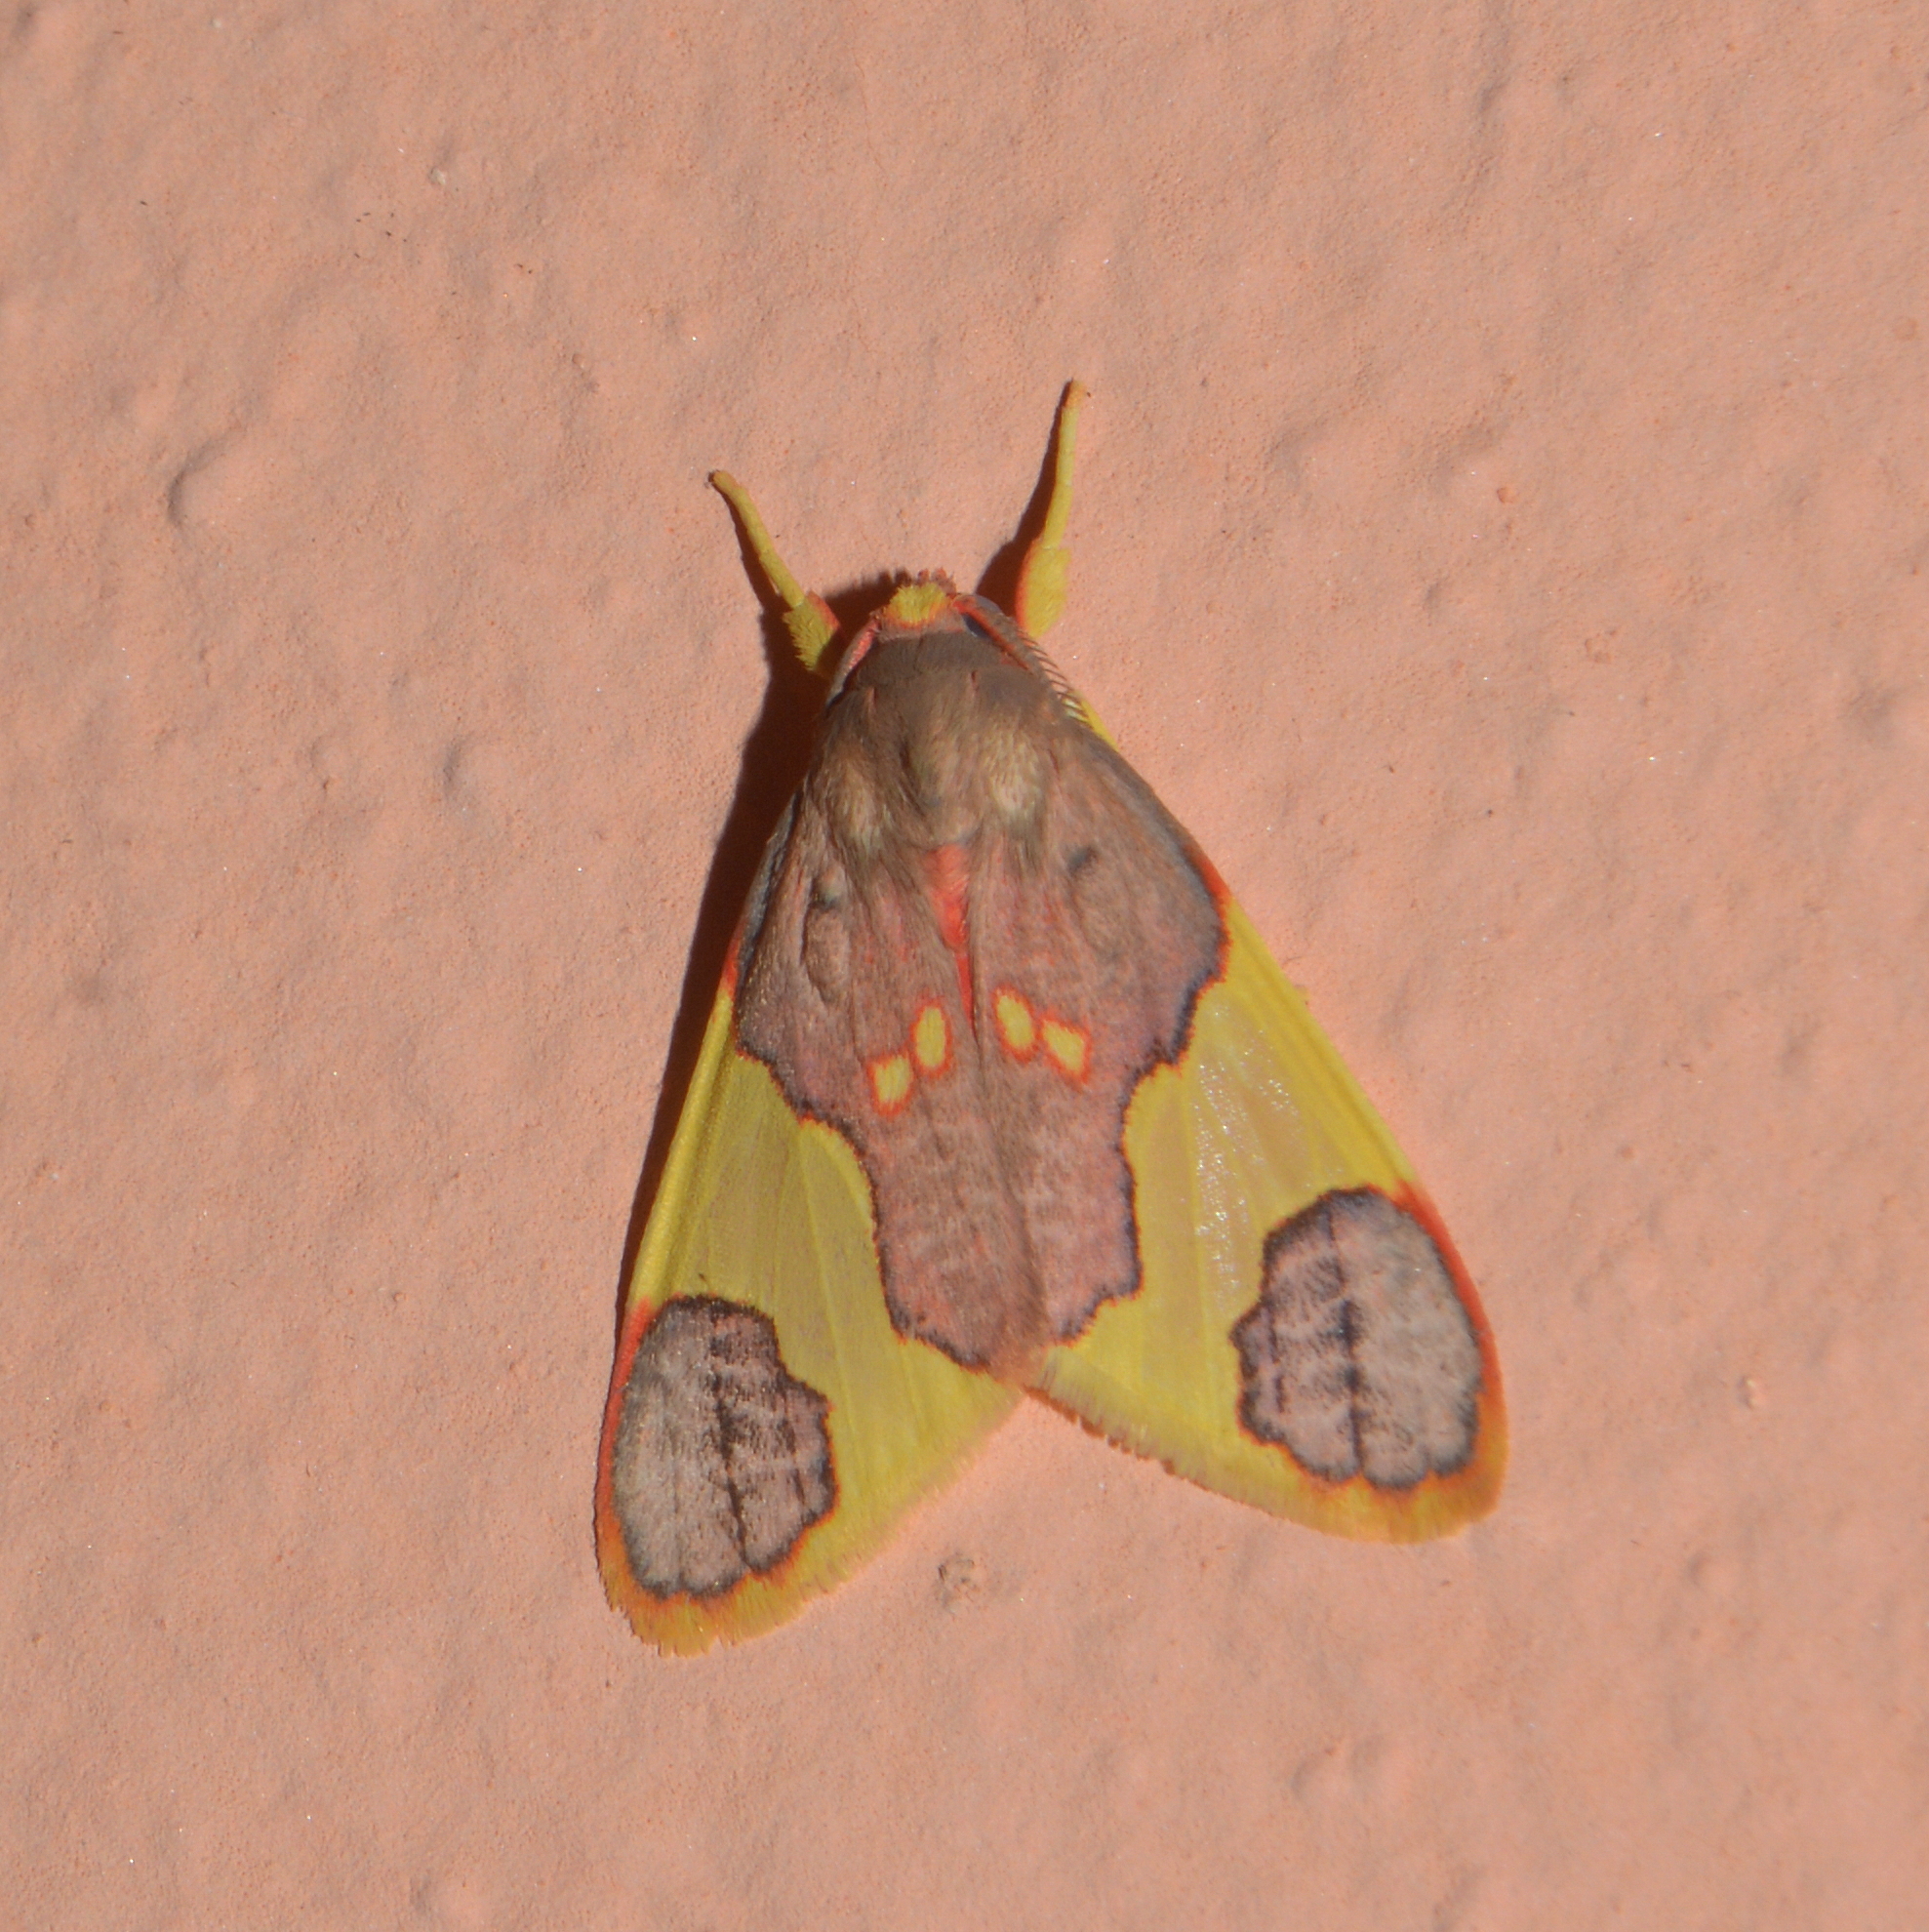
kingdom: Animalia
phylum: Arthropoda
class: Insecta
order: Lepidoptera
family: Erebidae
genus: Trichromia
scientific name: Trichromia
